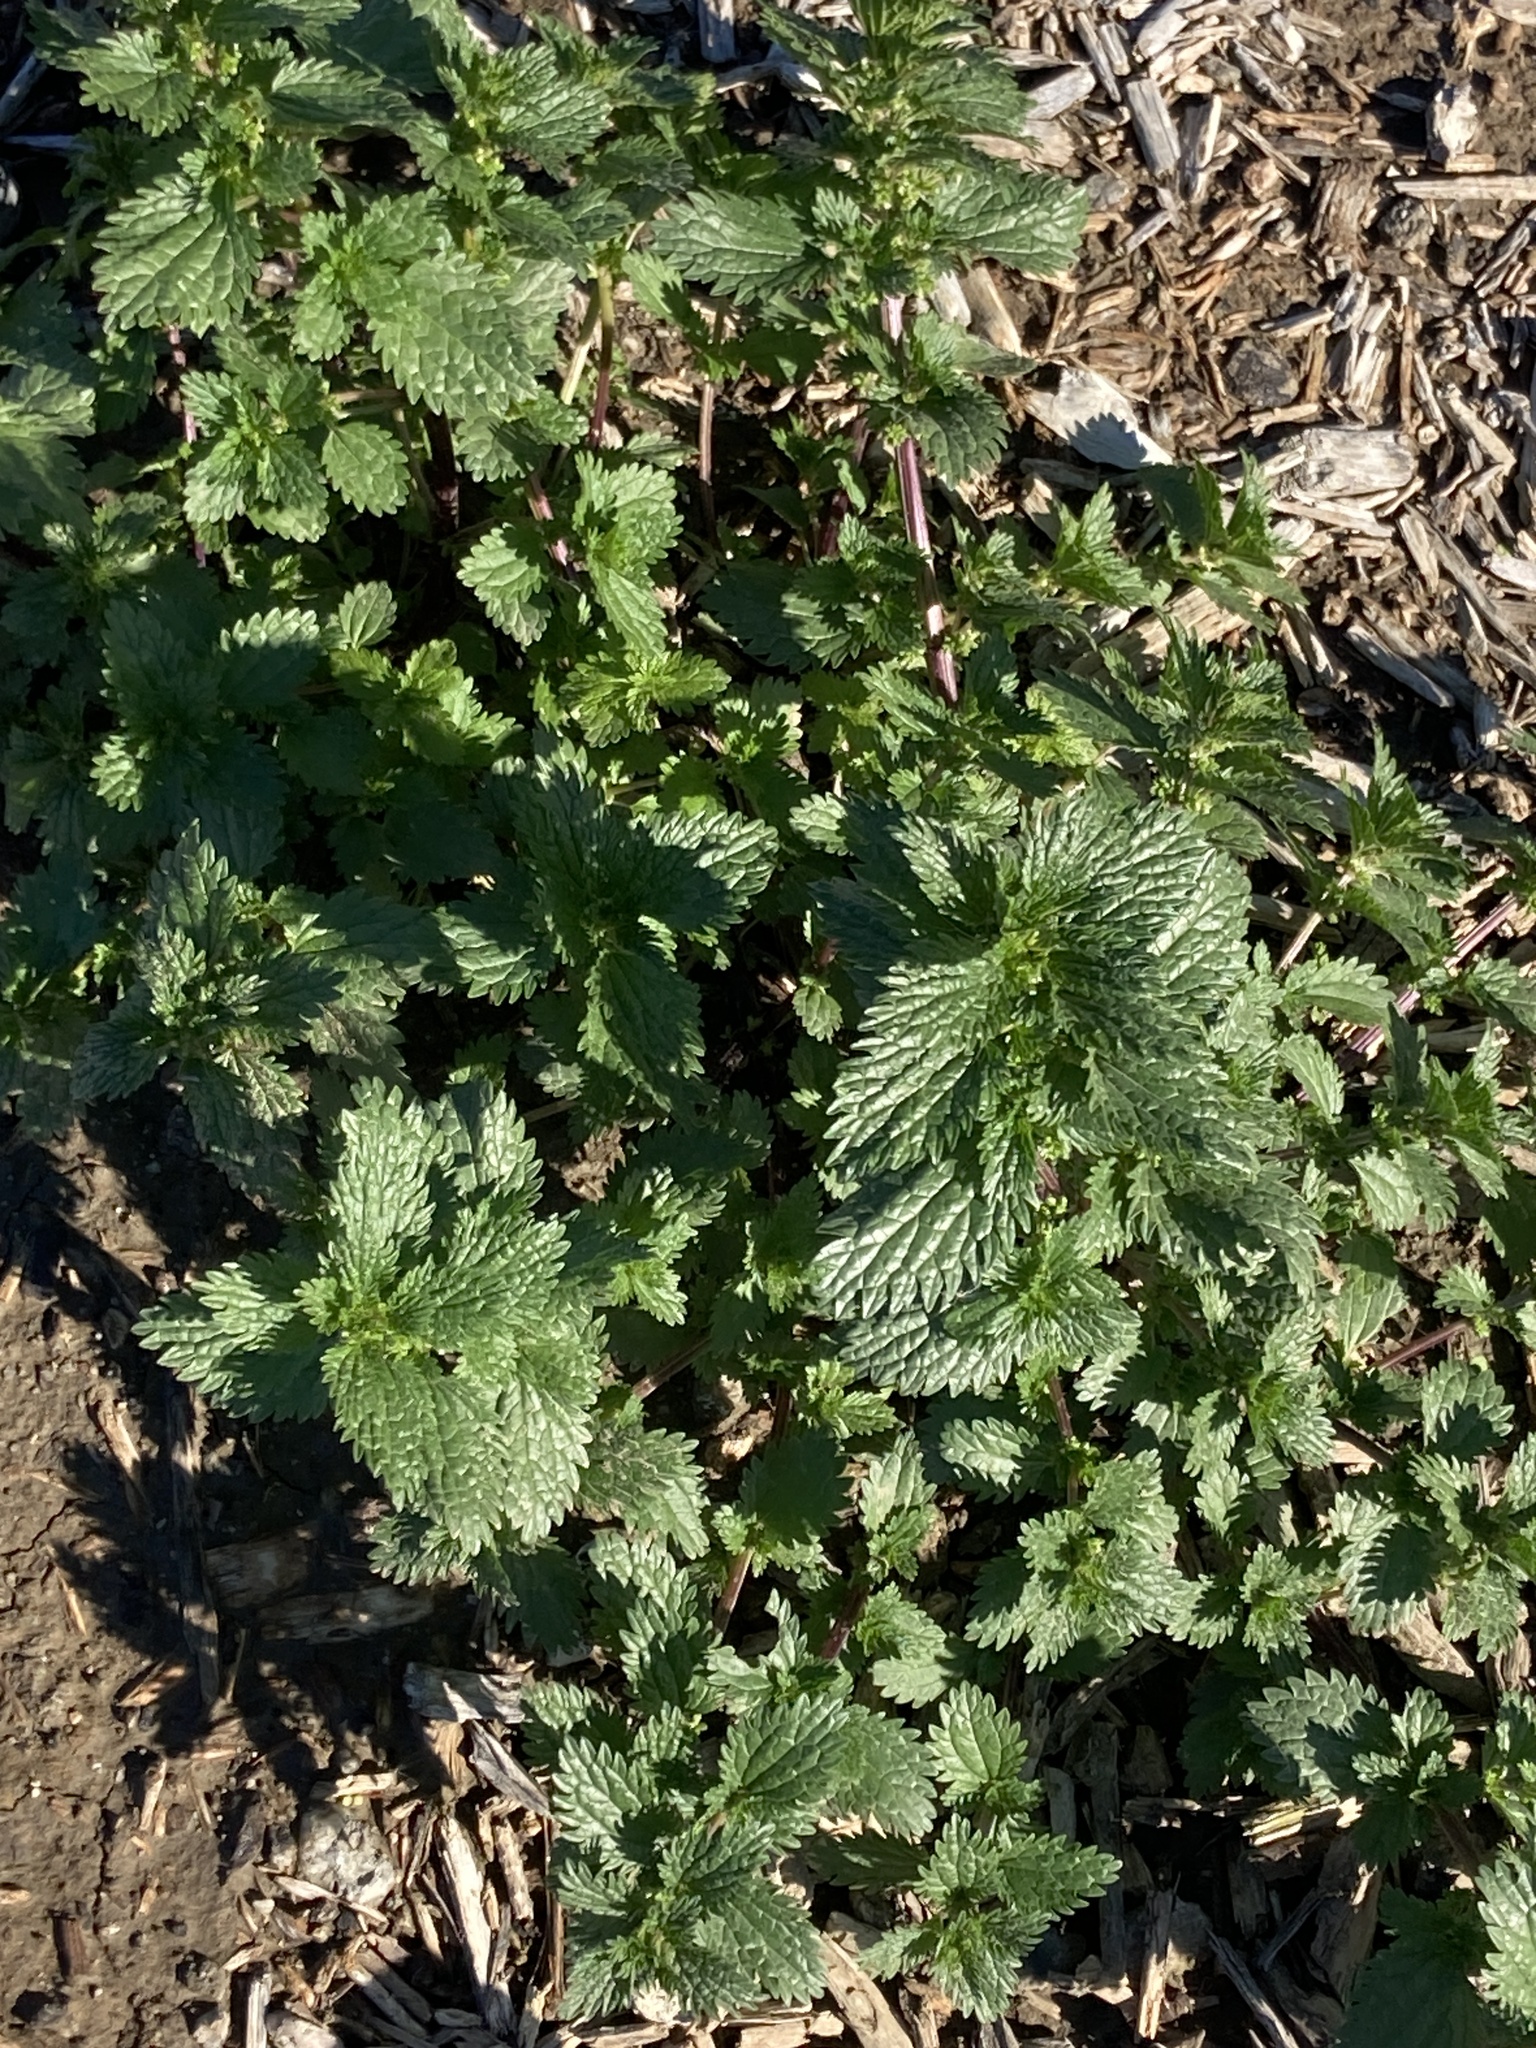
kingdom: Plantae
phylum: Tracheophyta
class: Magnoliopsida
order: Rosales
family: Urticaceae
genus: Urtica
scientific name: Urtica urens
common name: Dwarf nettle
